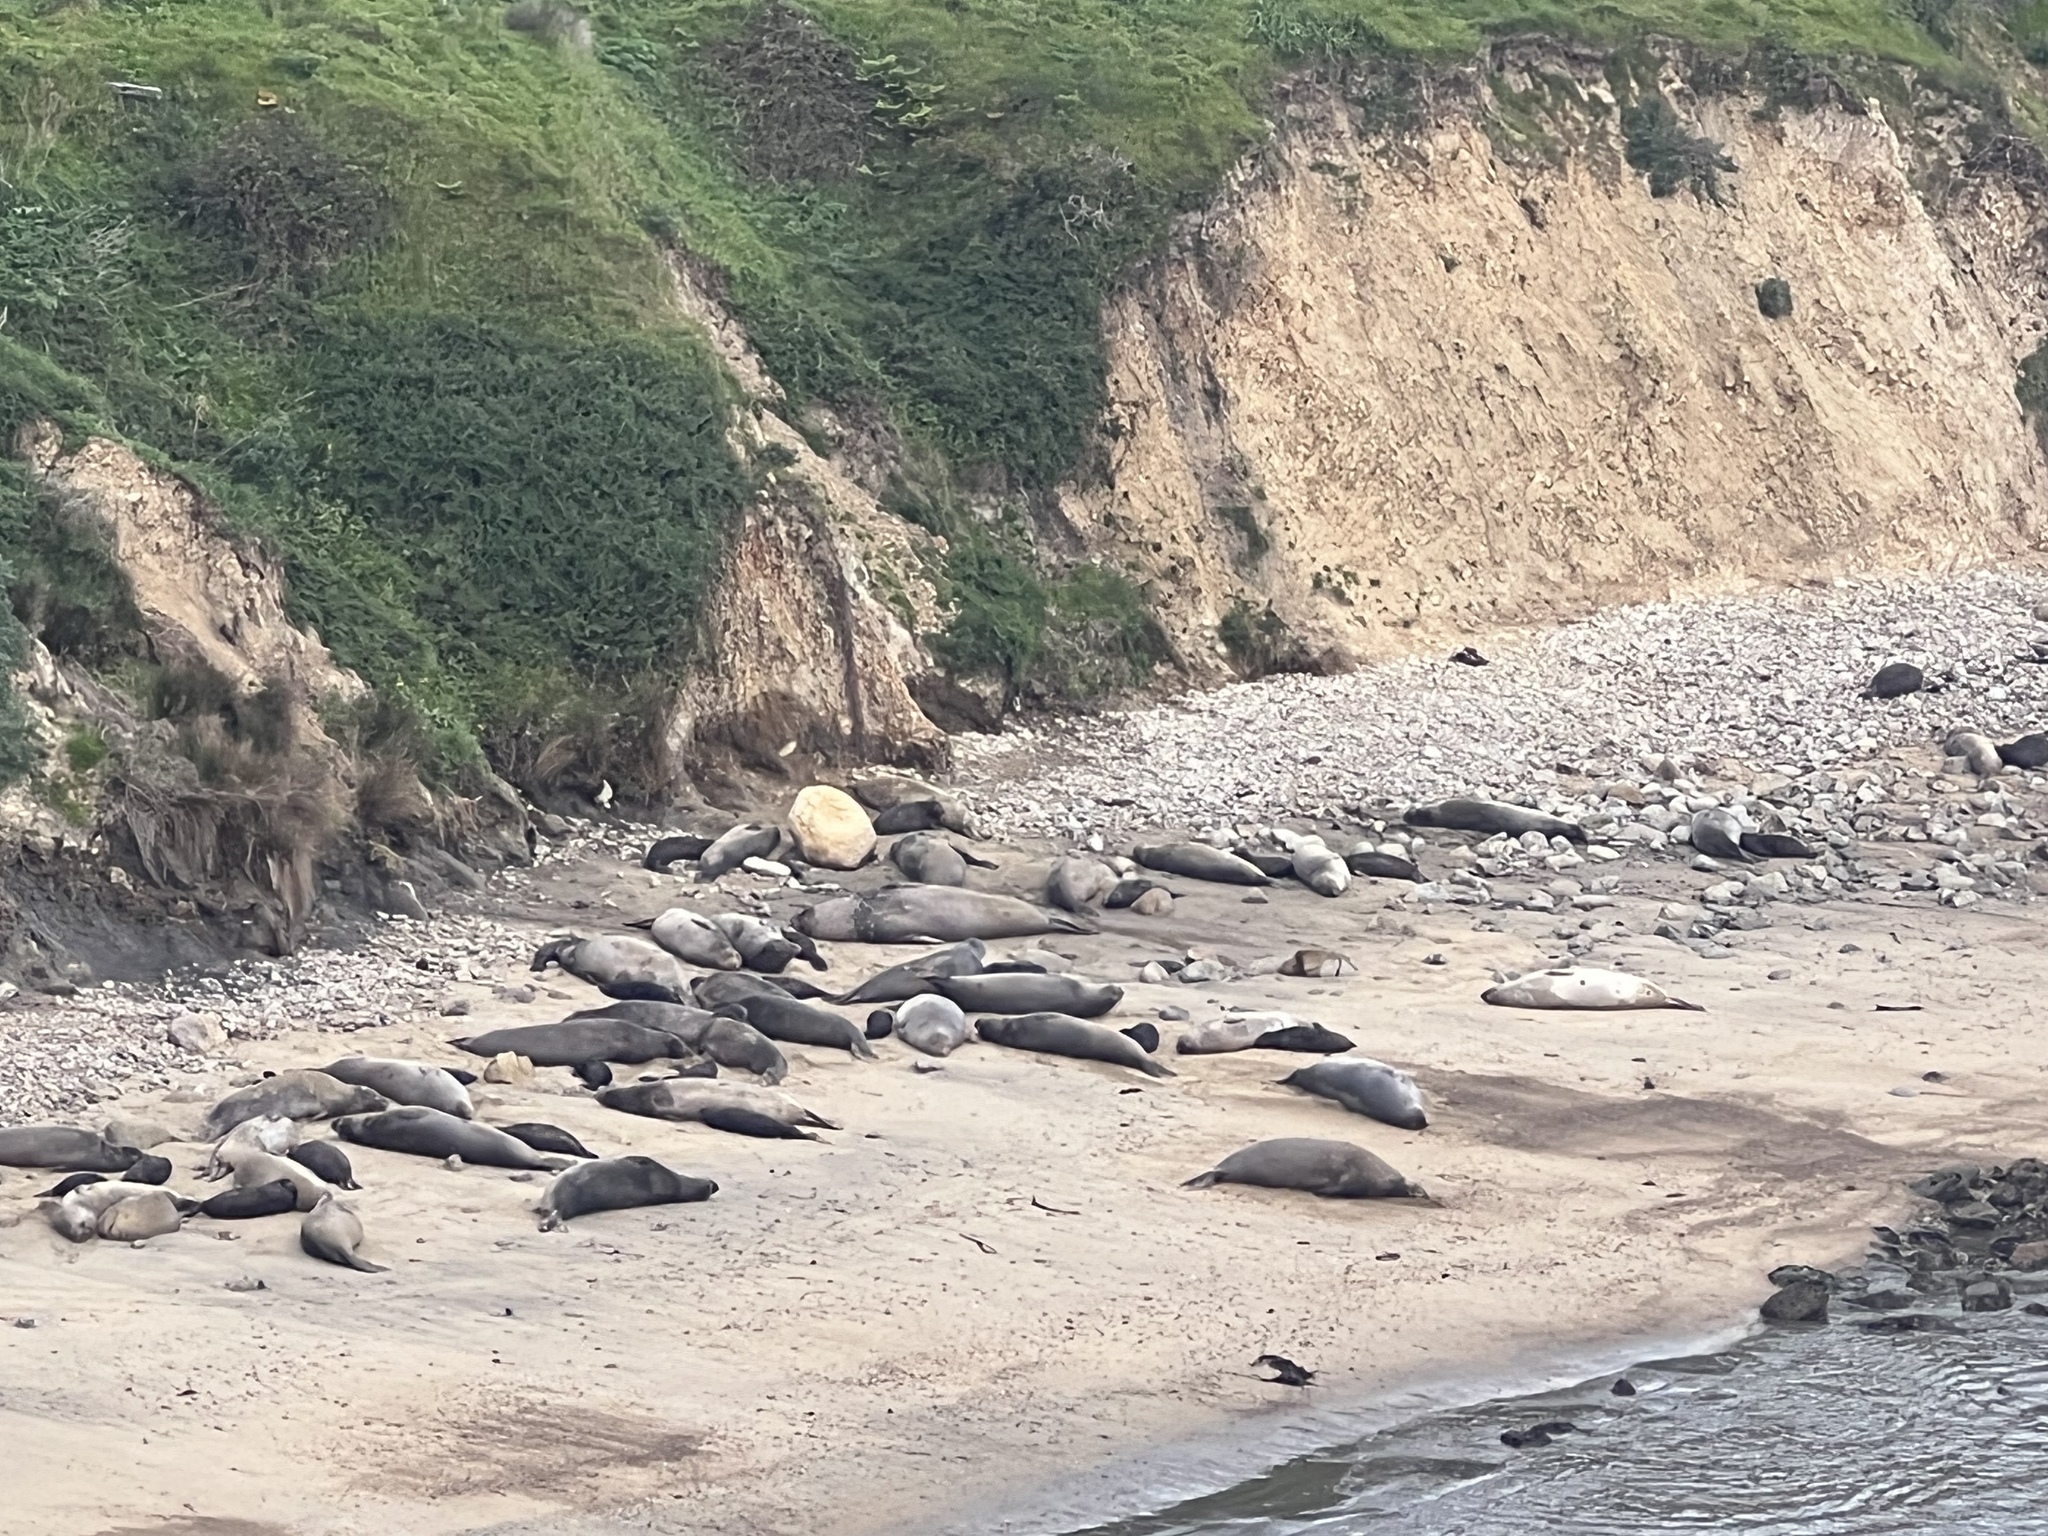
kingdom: Animalia
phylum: Chordata
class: Mammalia
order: Carnivora
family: Phocidae
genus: Mirounga
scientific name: Mirounga angustirostris
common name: Northern elephant seal
